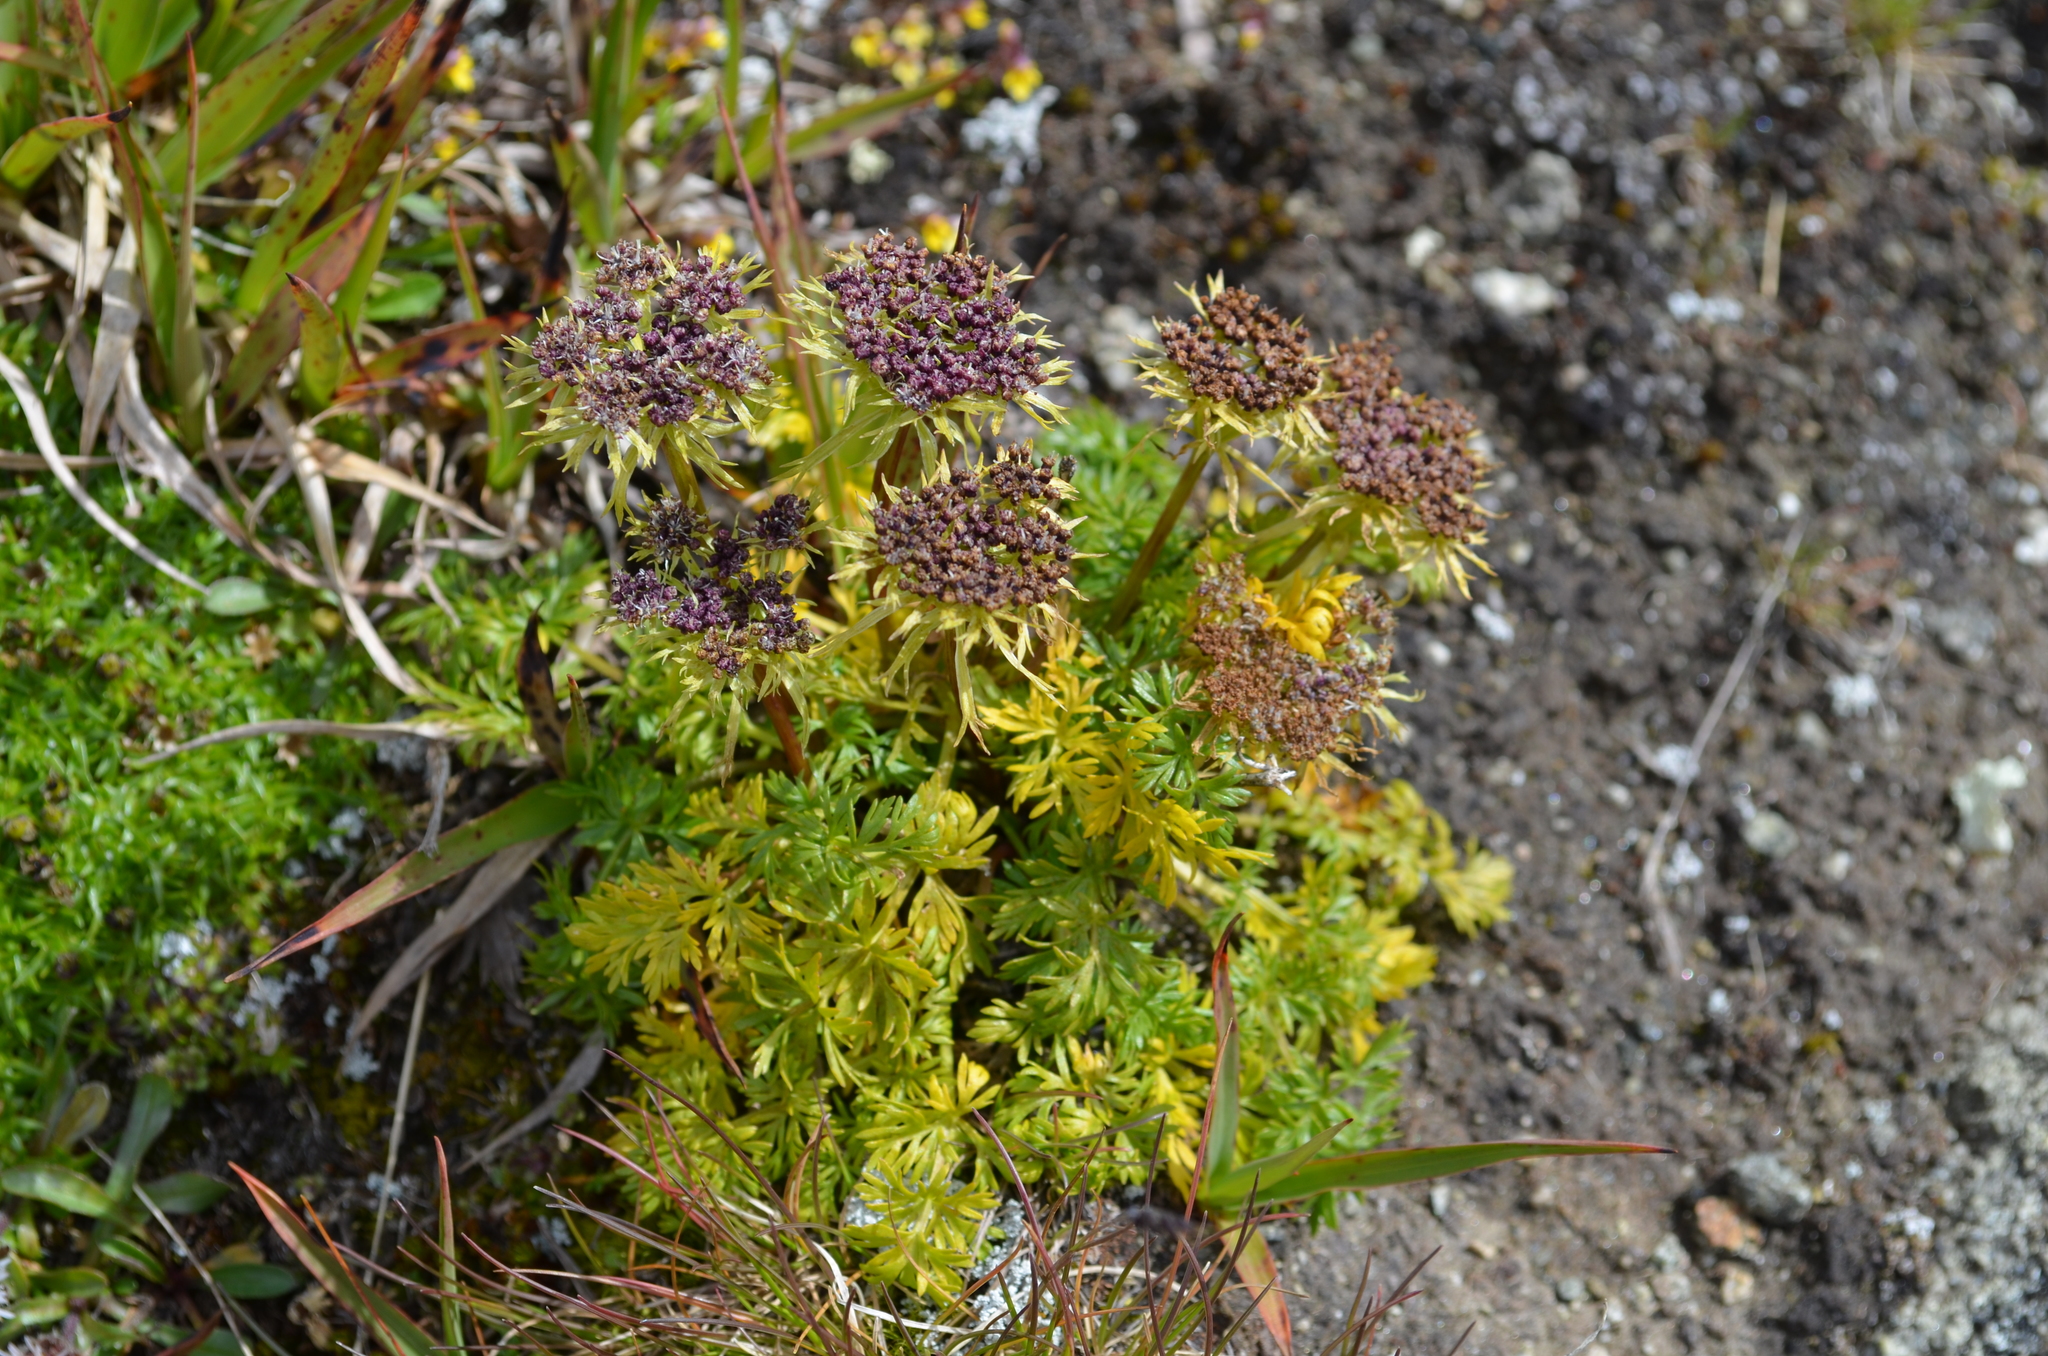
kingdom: Plantae
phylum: Tracheophyta
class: Magnoliopsida
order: Apiales
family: Apiaceae
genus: Pachypleurum
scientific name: Pachypleurum mutellinoides
